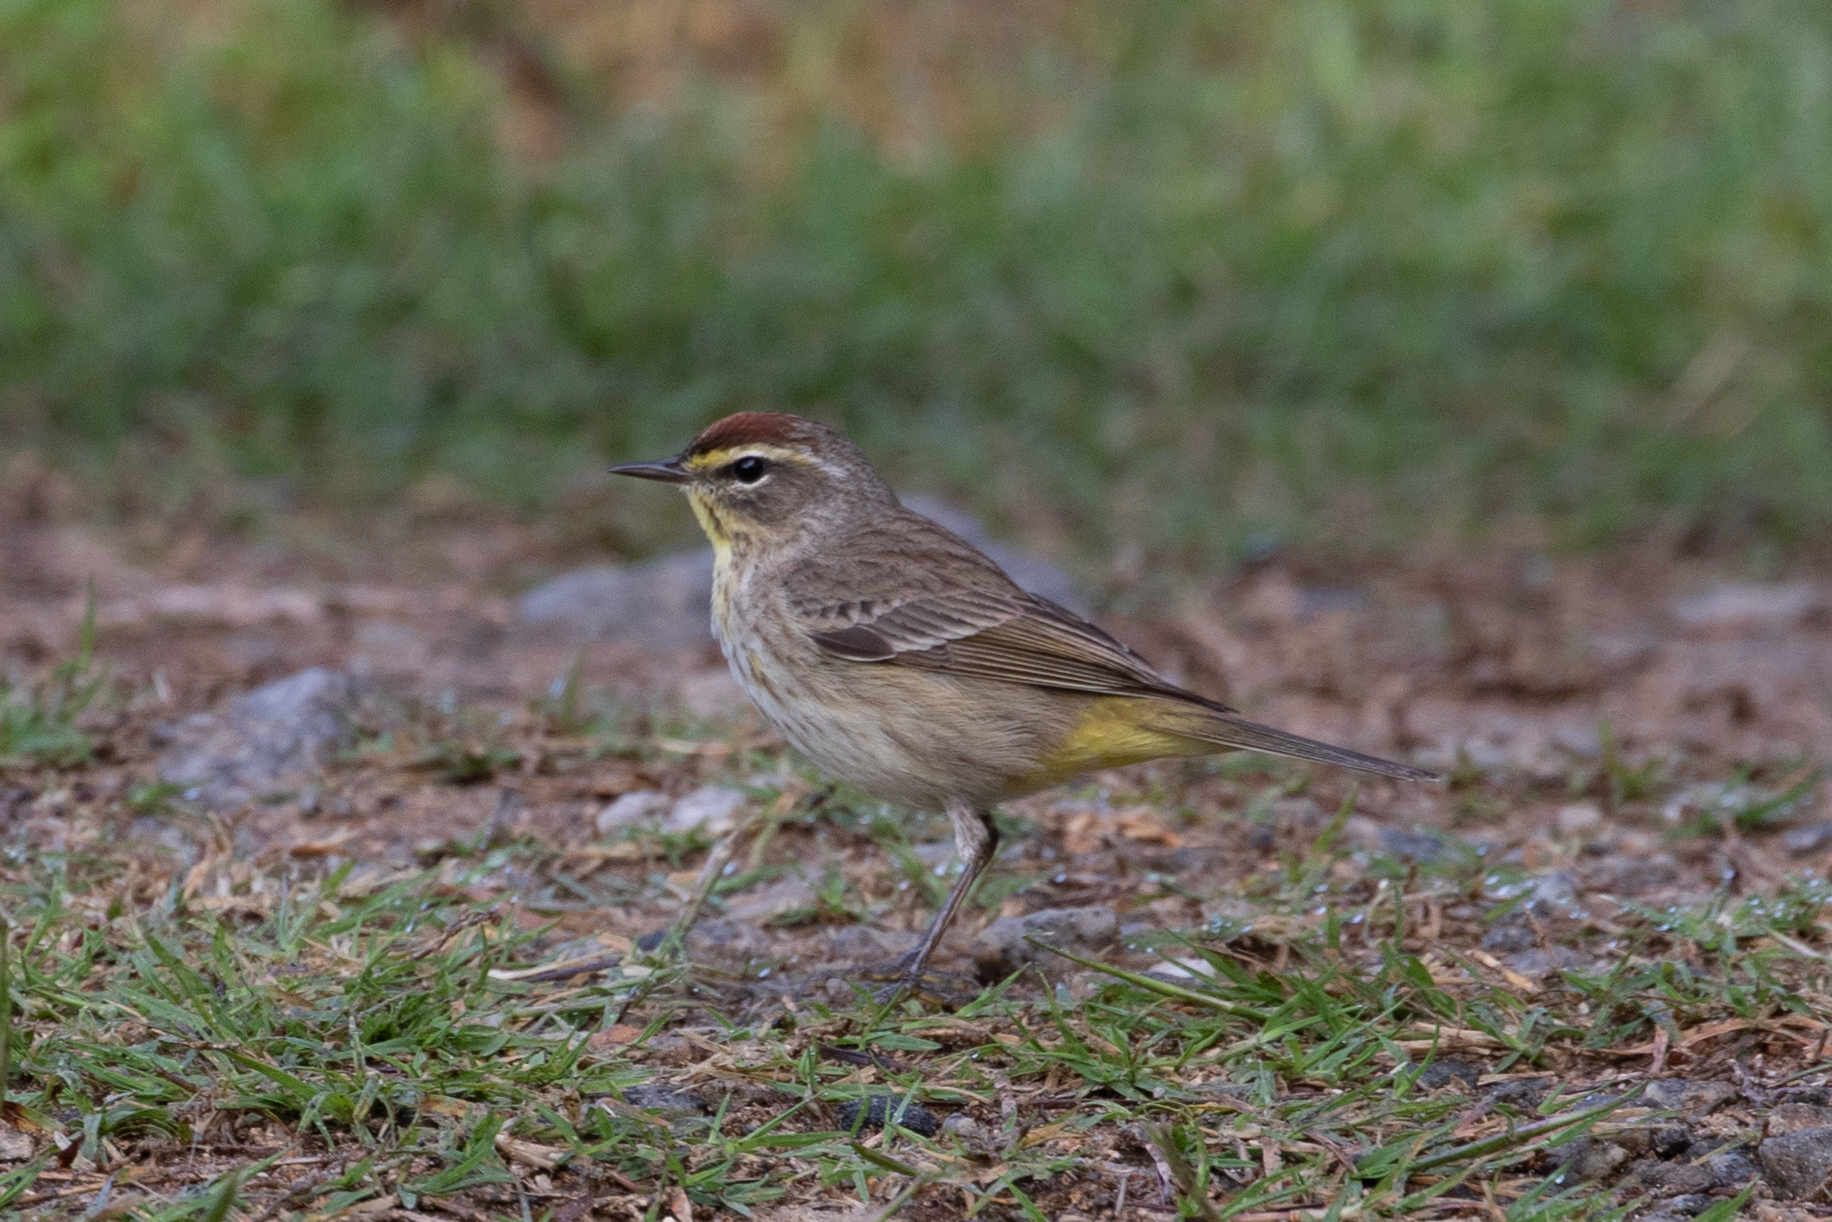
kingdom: Animalia
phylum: Chordata
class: Aves
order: Passeriformes
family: Parulidae
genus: Setophaga
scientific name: Setophaga palmarum
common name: Palm warbler
